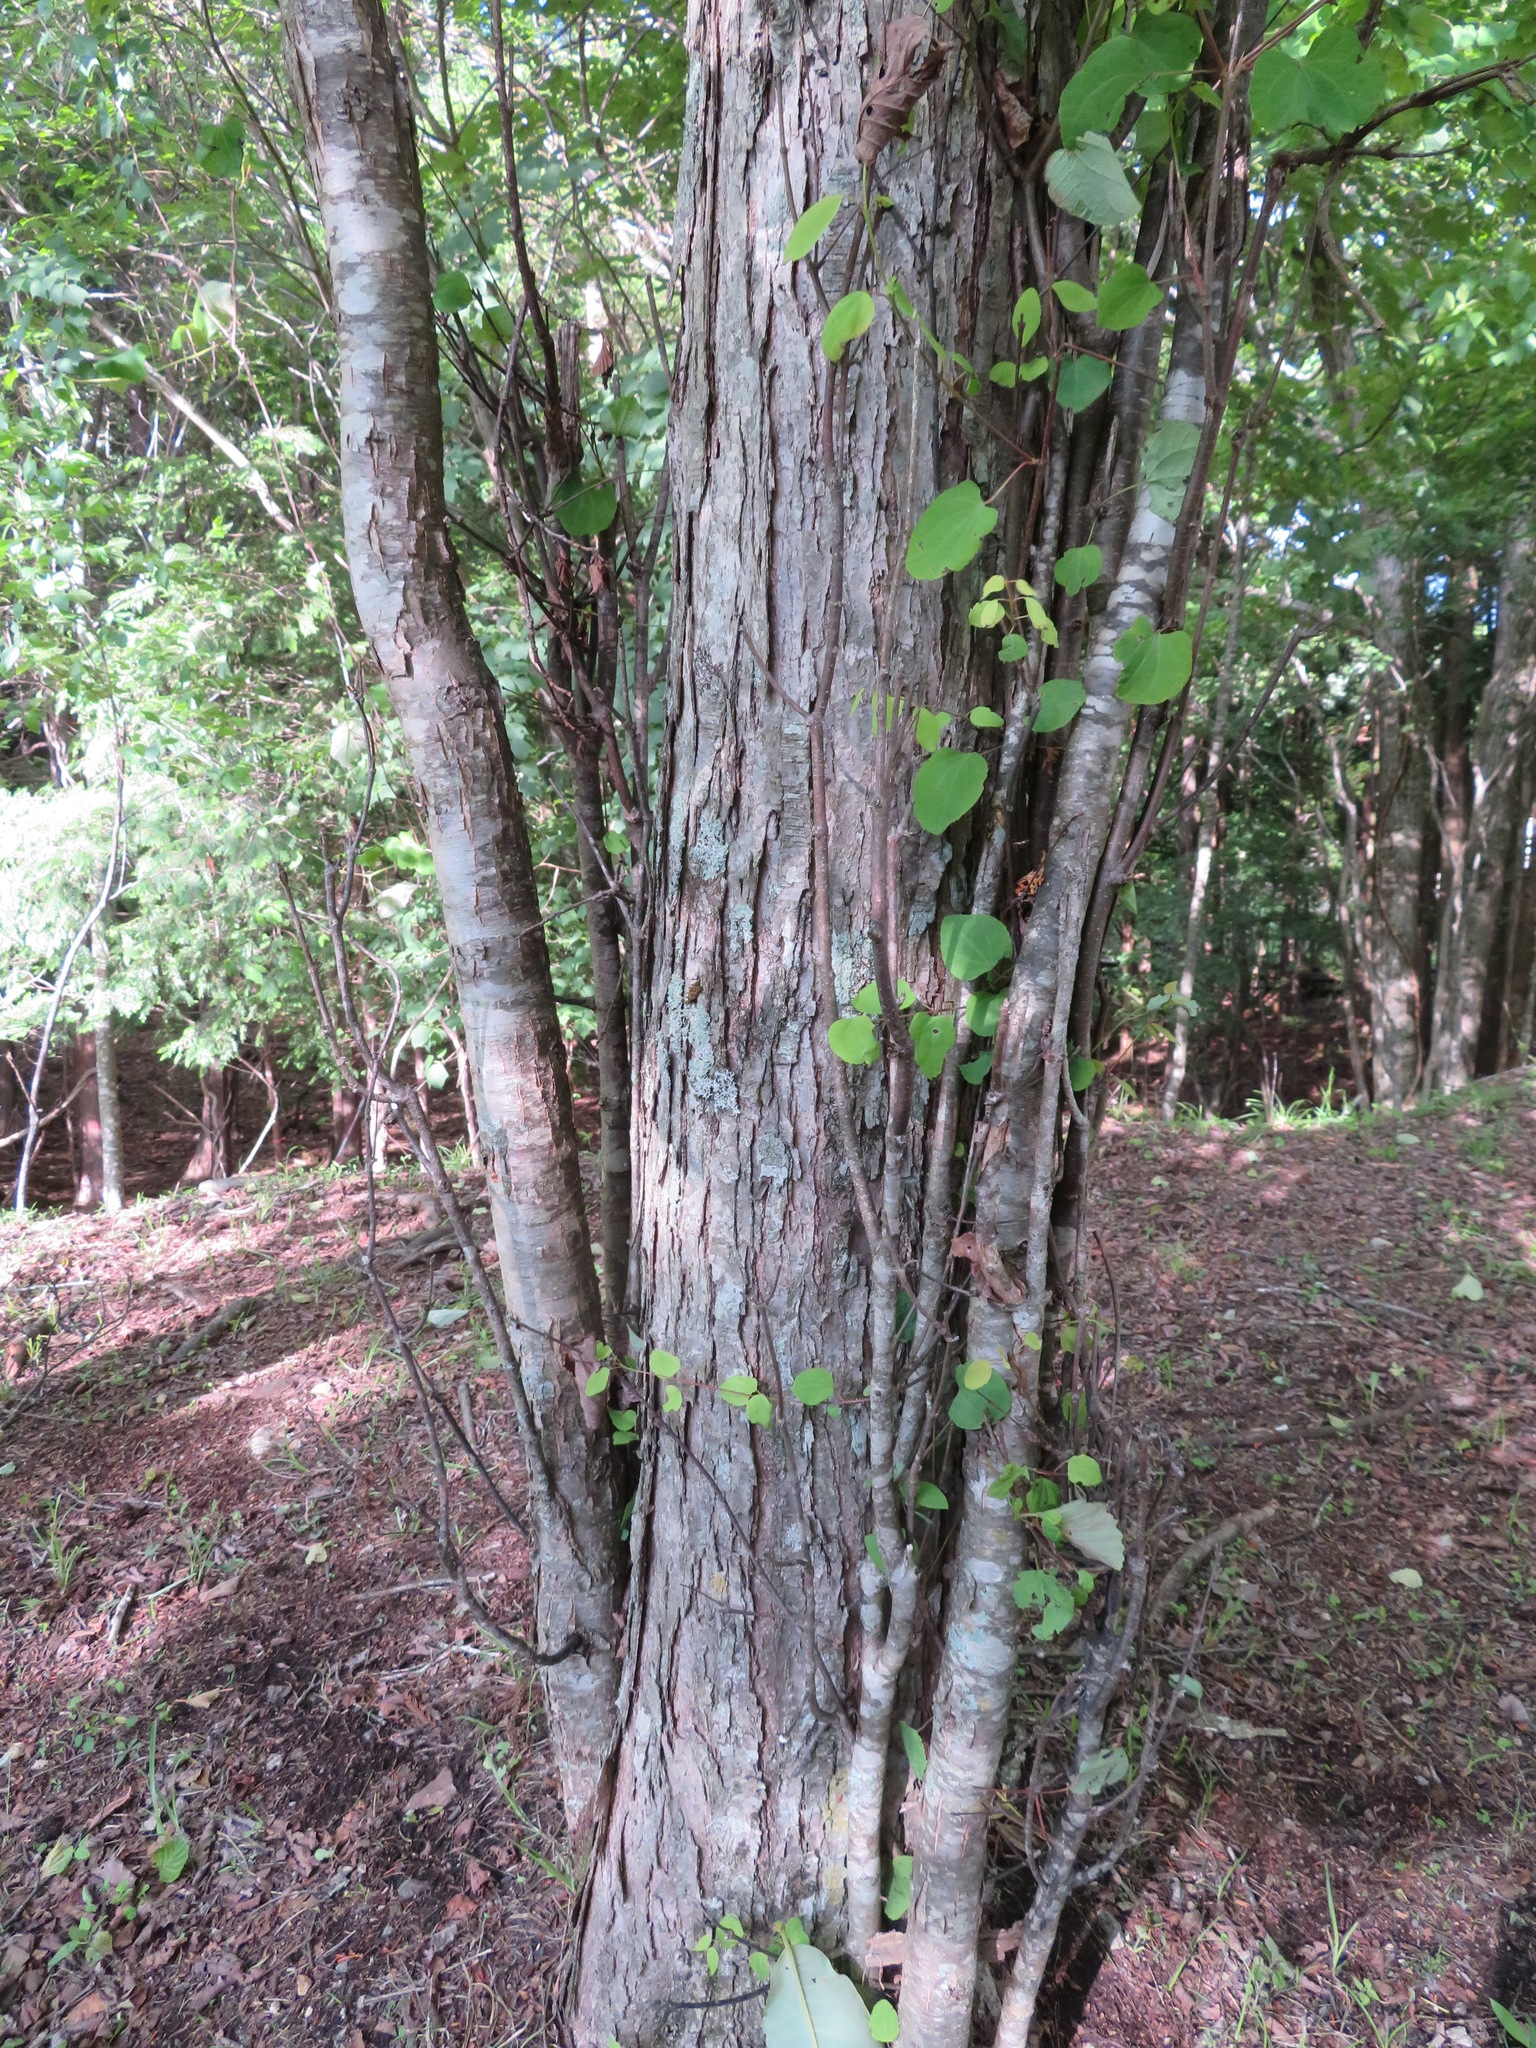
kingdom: Plantae
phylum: Tracheophyta
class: Magnoliopsida
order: Saxifragales
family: Cercidiphyllaceae
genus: Cercidiphyllum
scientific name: Cercidiphyllum japonicum
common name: Katsura tree
